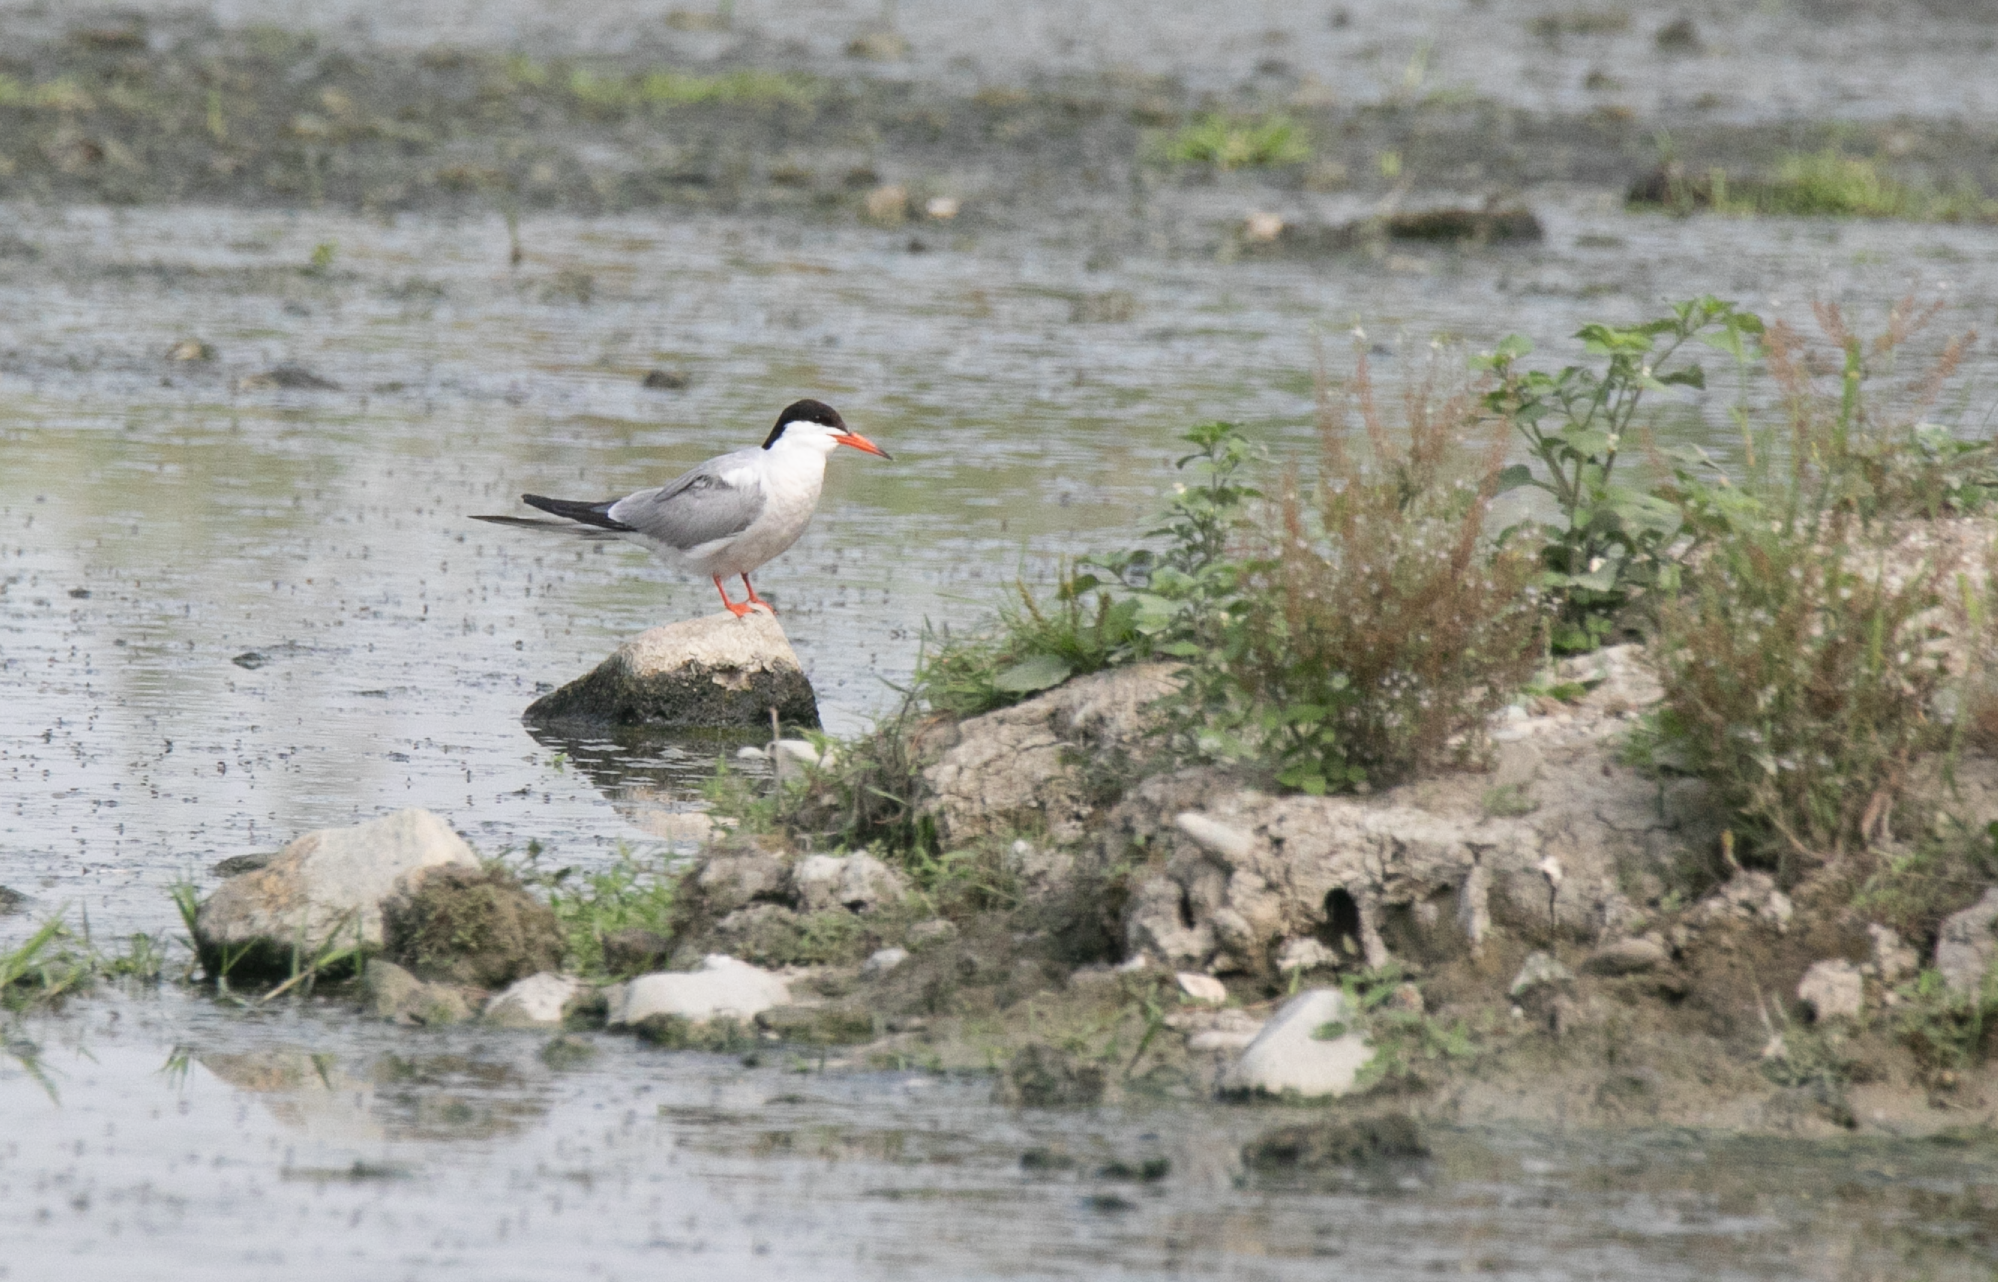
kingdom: Animalia
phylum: Chordata
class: Aves
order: Charadriiformes
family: Laridae
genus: Sterna
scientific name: Sterna hirundo
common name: Common tern
